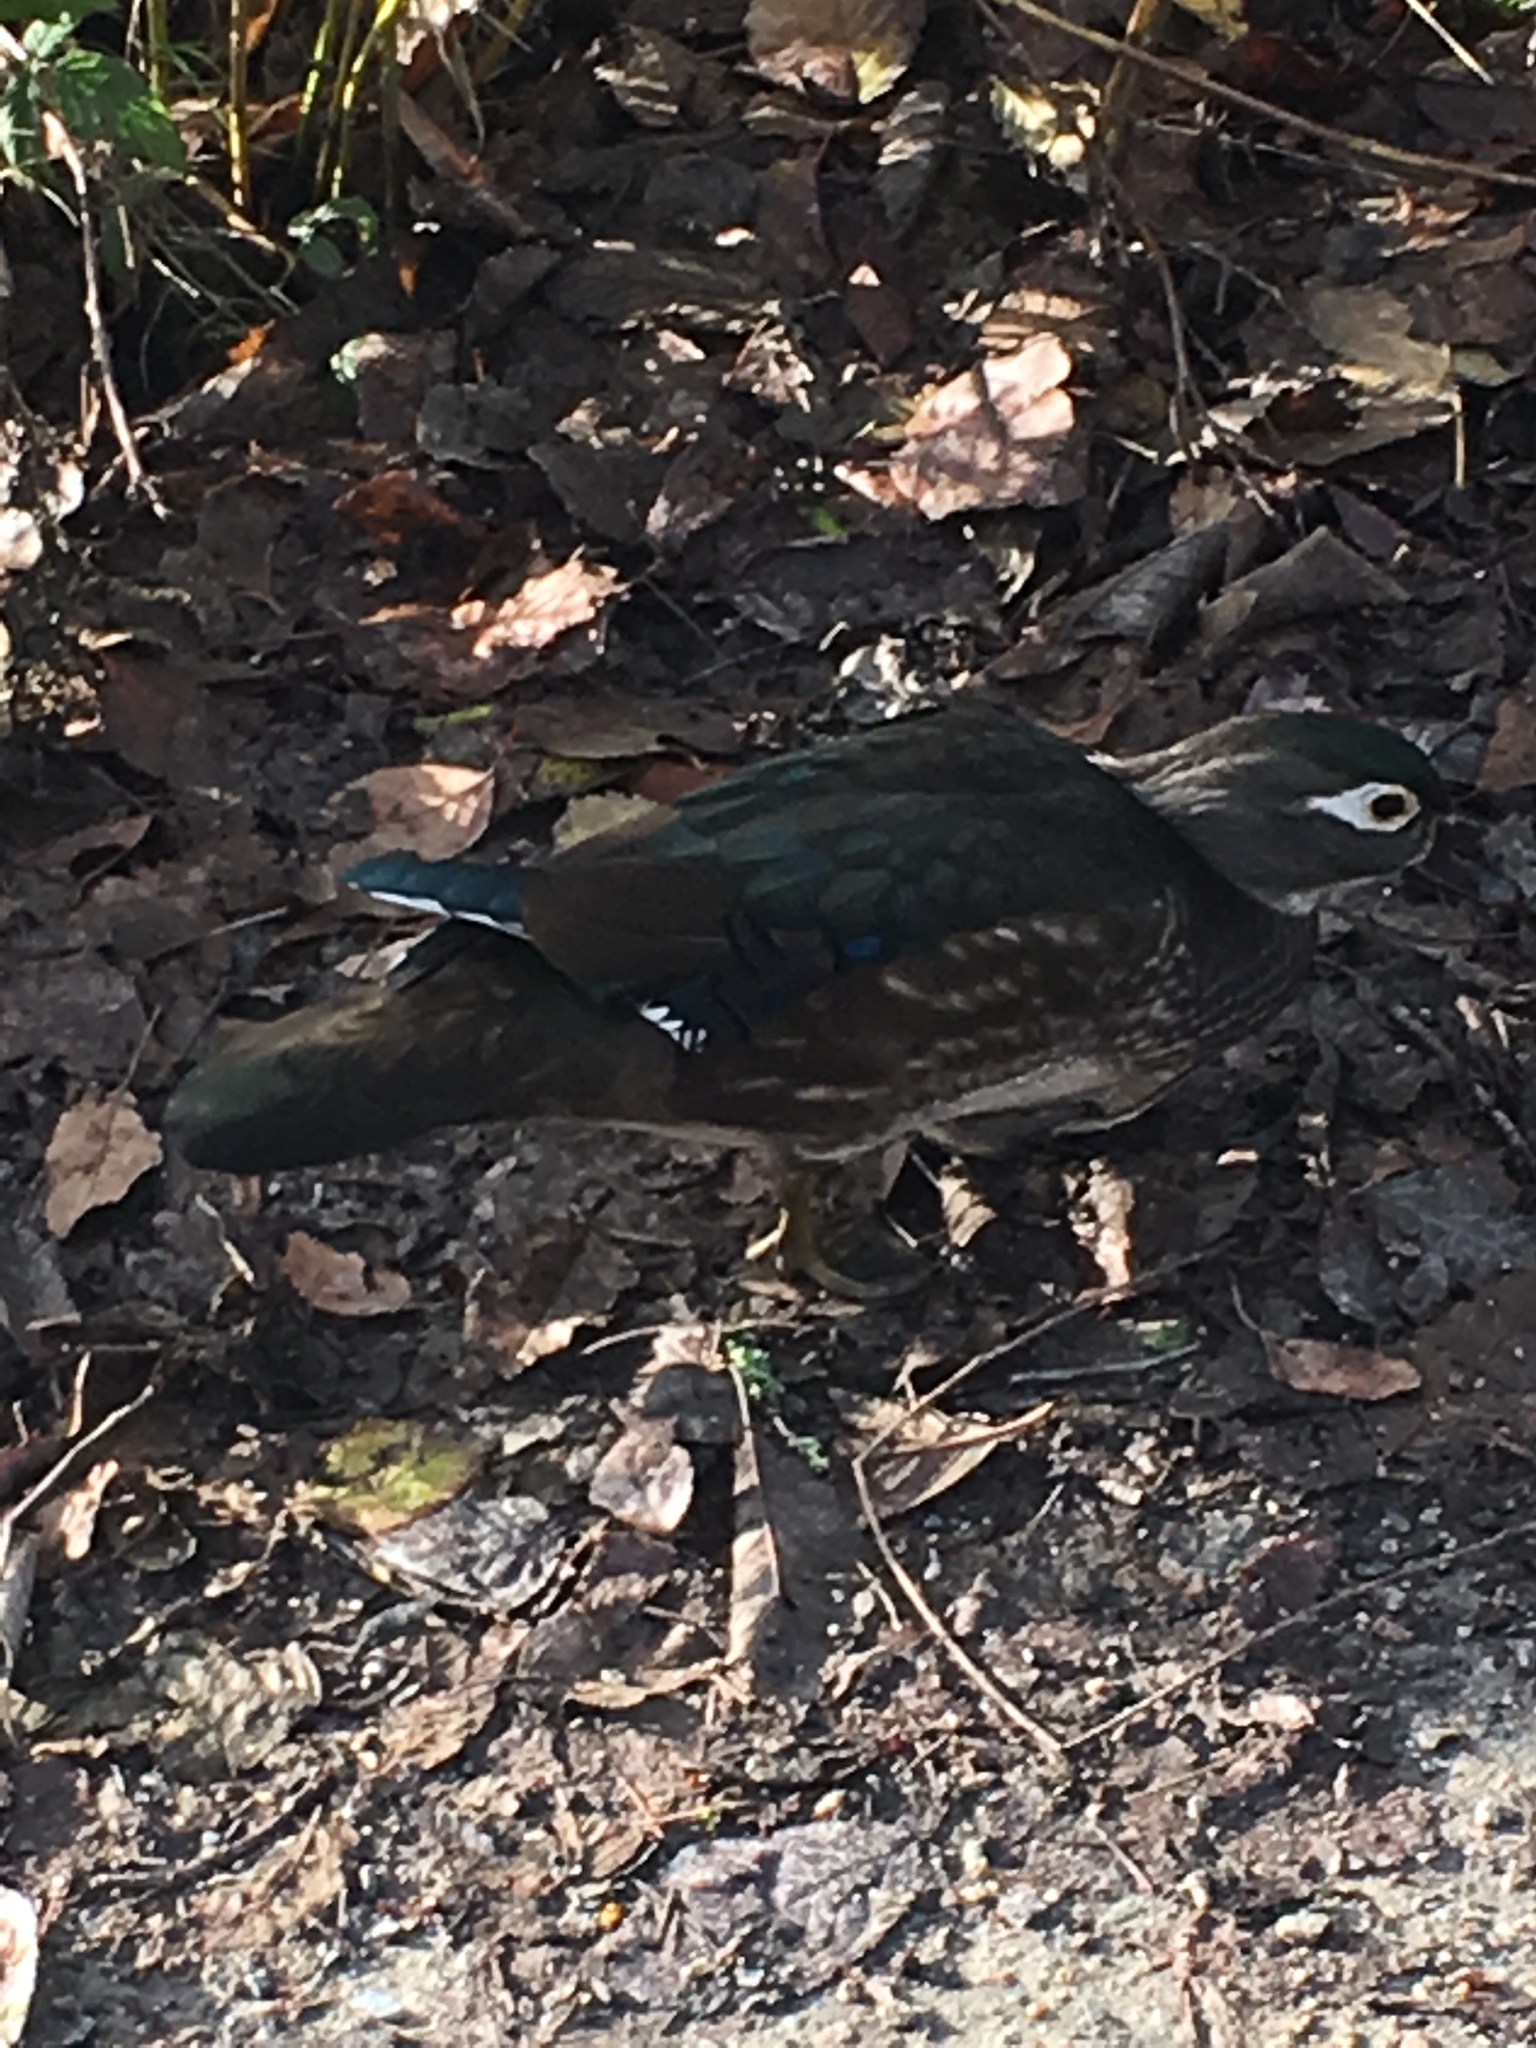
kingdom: Animalia
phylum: Chordata
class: Aves
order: Anseriformes
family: Anatidae
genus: Aix
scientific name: Aix sponsa
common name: Wood duck
